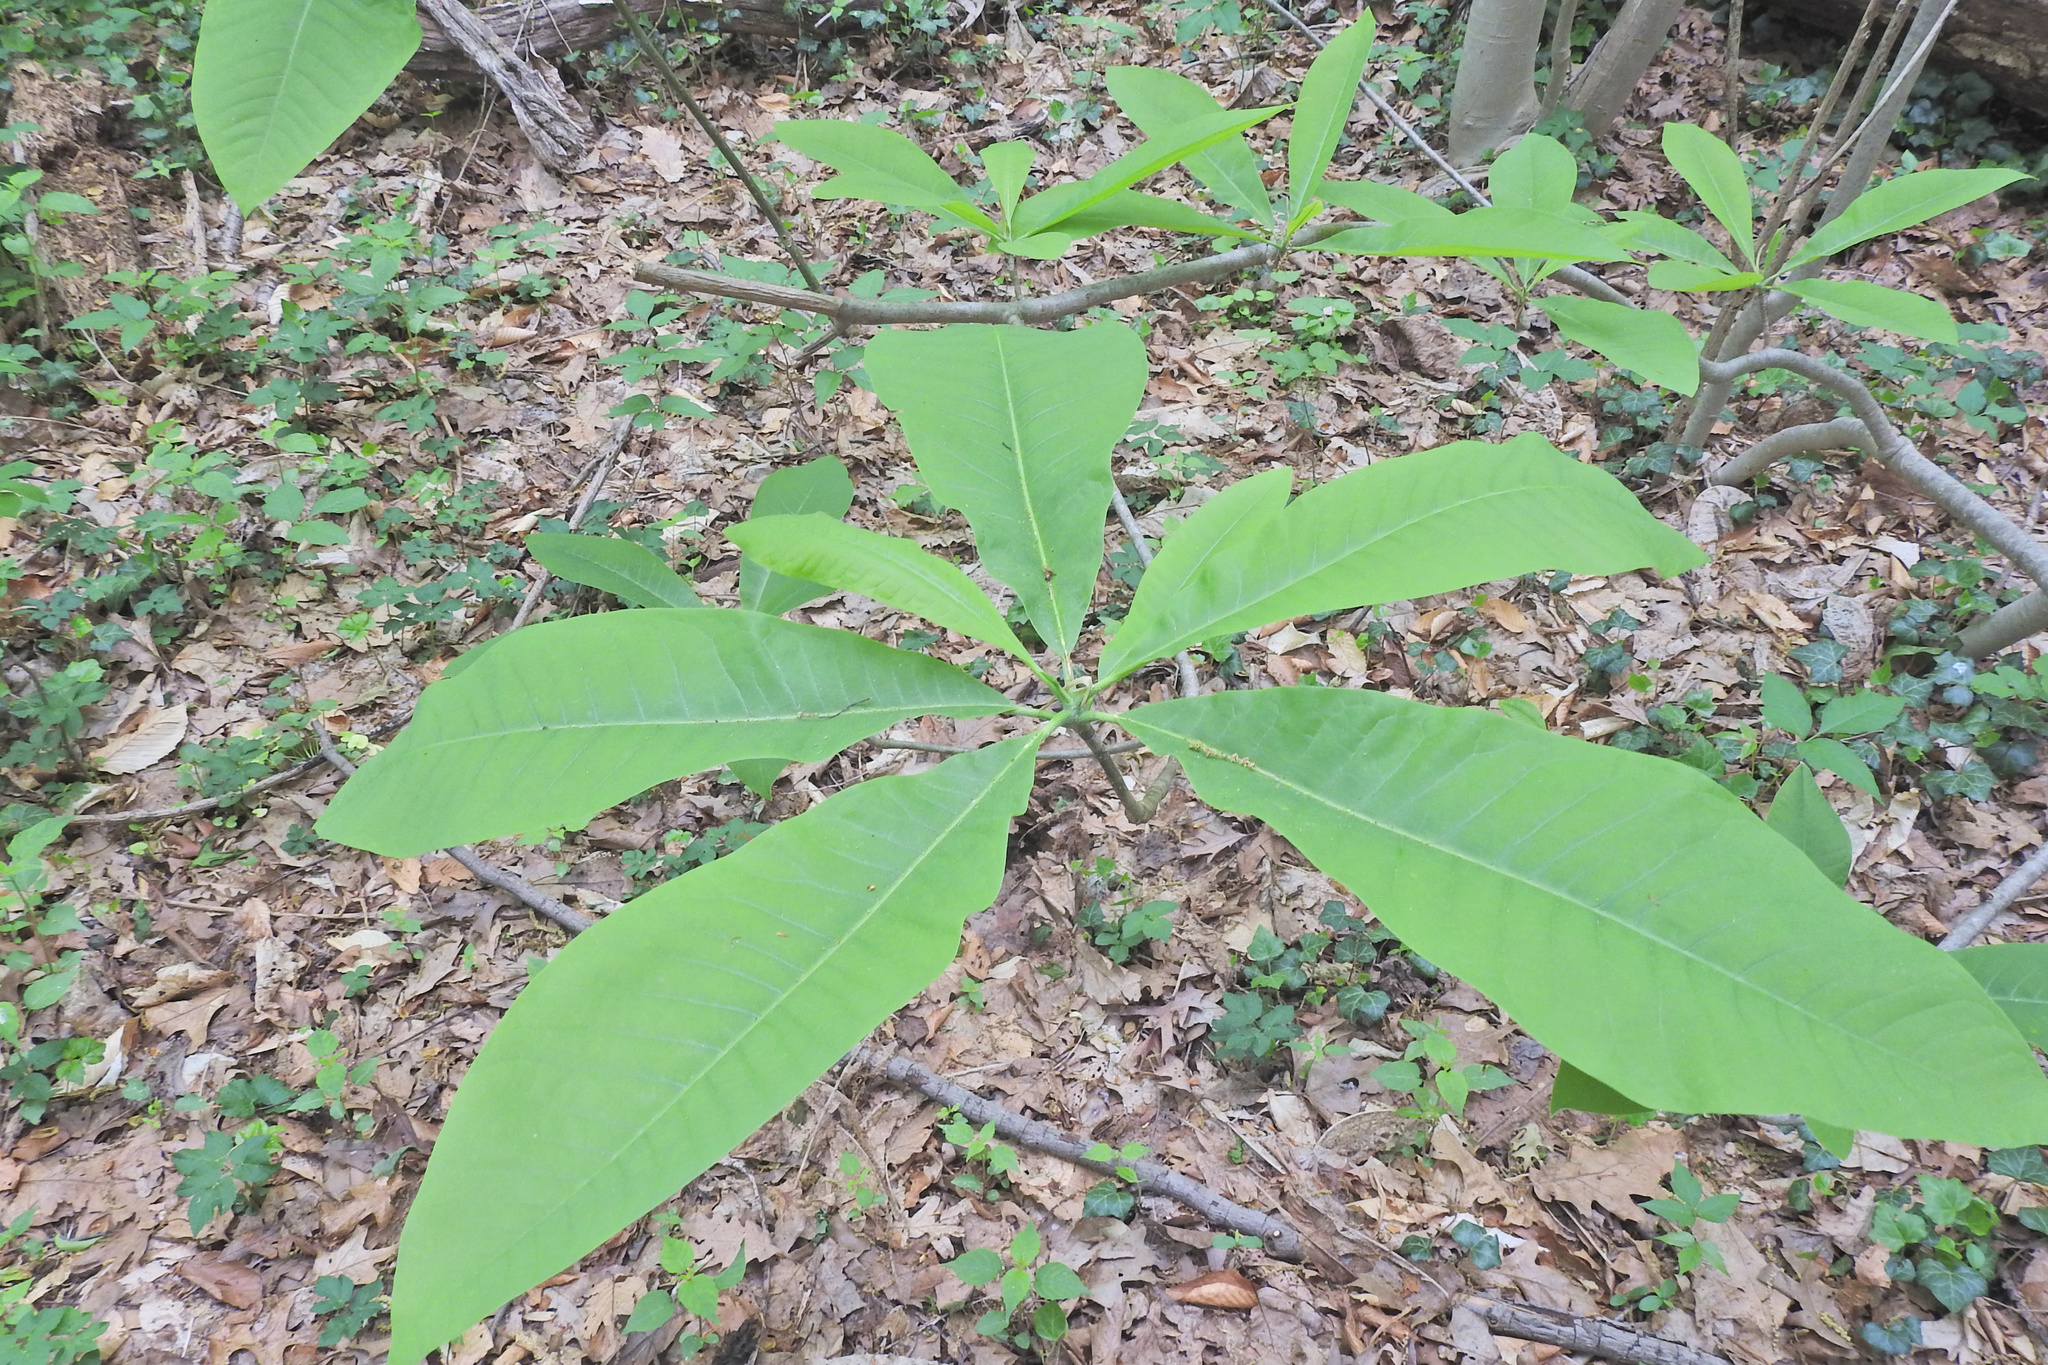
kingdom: Plantae
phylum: Tracheophyta
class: Magnoliopsida
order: Magnoliales
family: Magnoliaceae
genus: Magnolia
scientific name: Magnolia tripetala
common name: Umbrella magnolia
